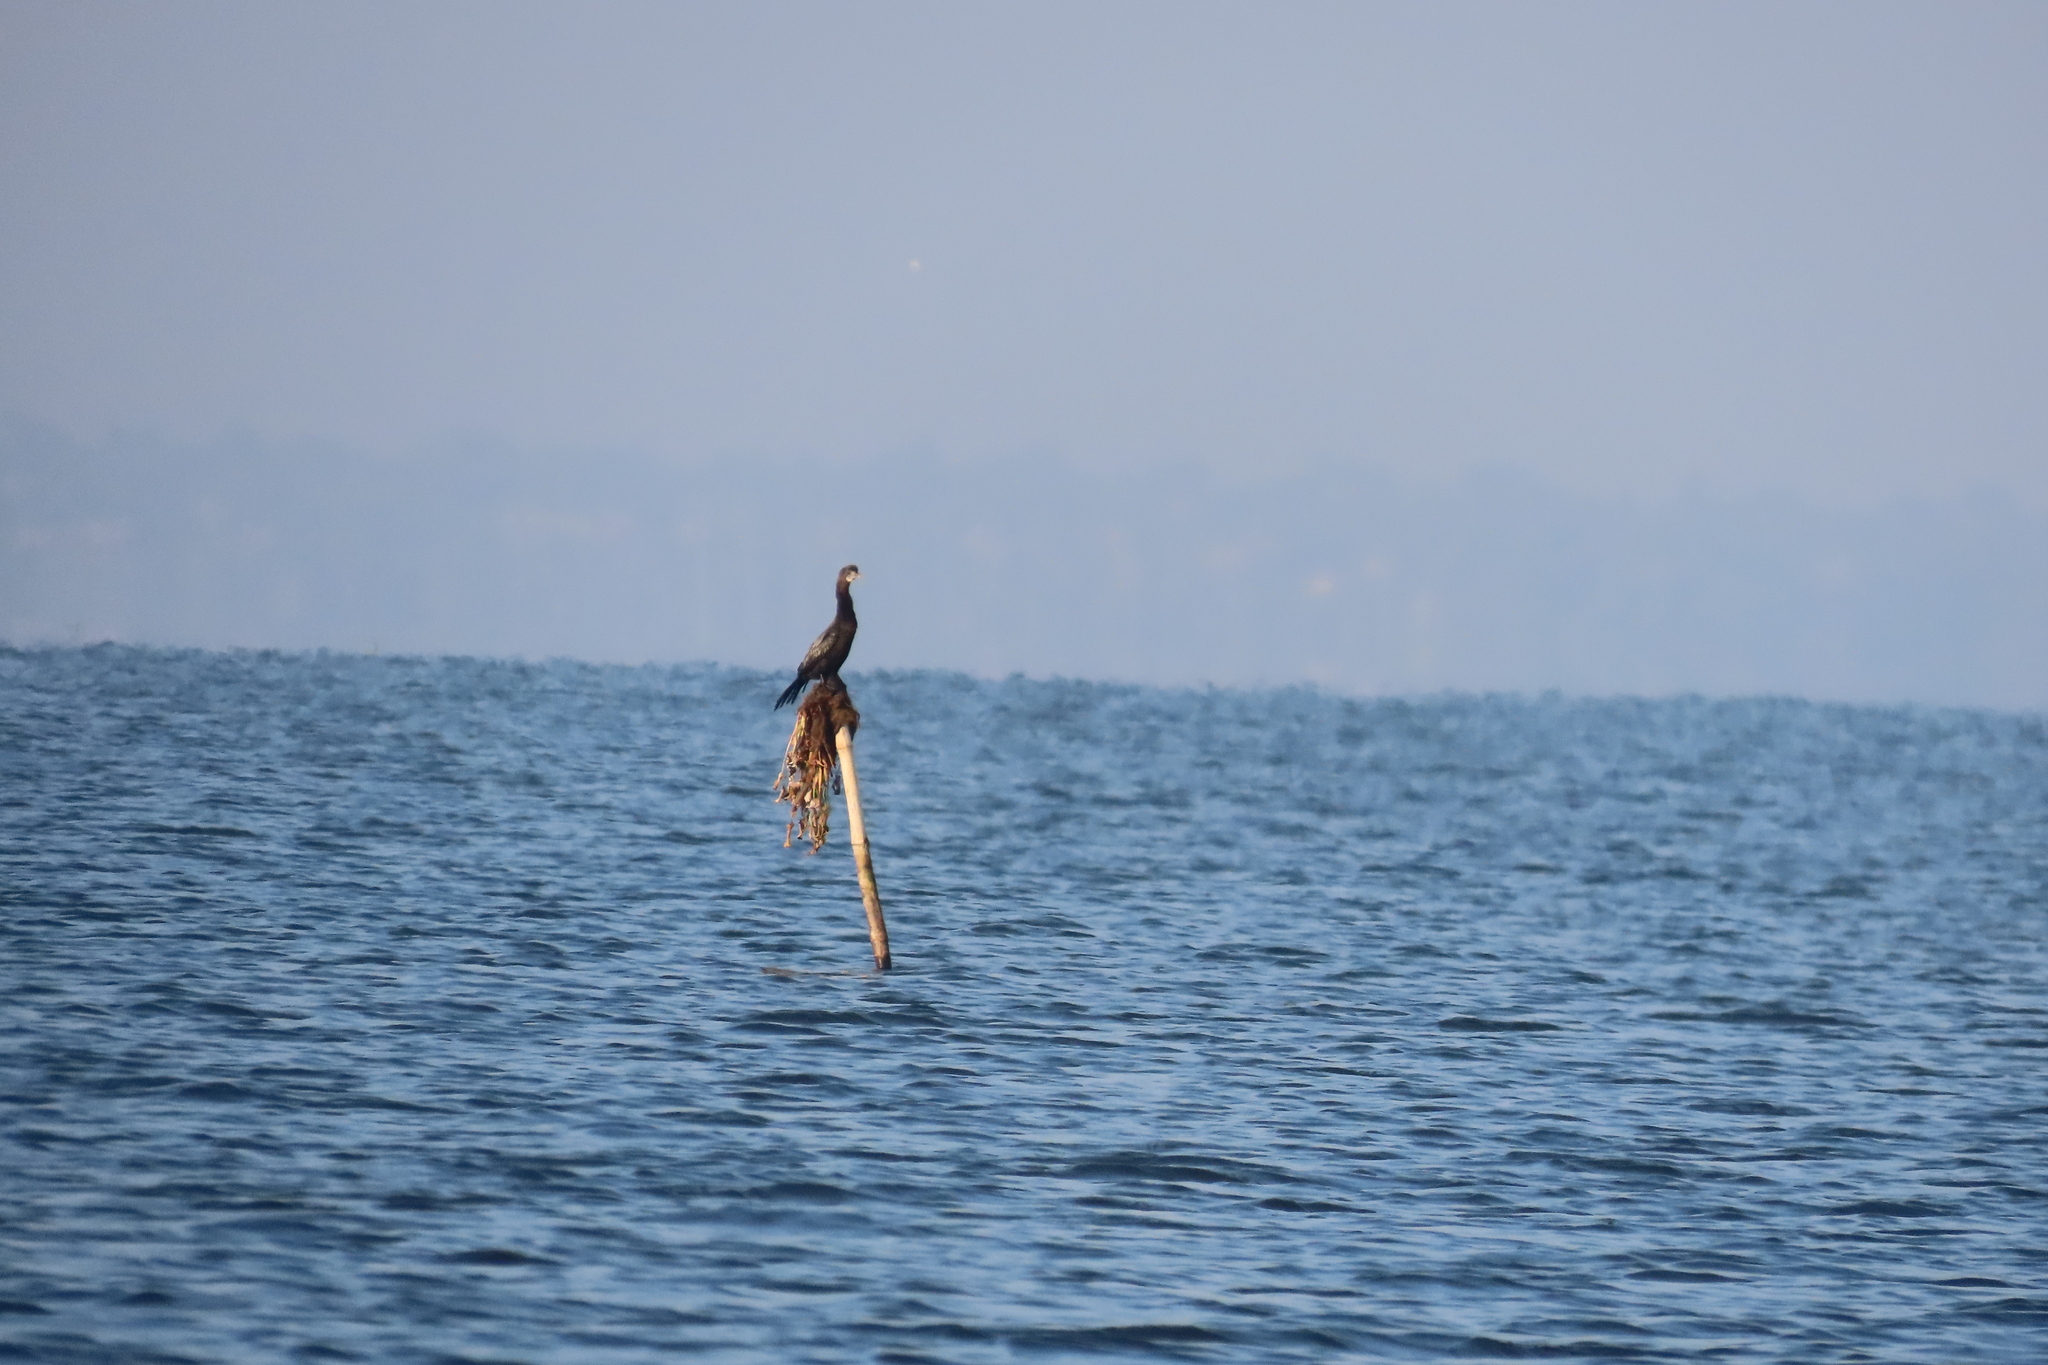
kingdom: Animalia
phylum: Chordata
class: Aves
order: Suliformes
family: Phalacrocoracidae
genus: Microcarbo
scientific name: Microcarbo niger
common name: Little cormorant
